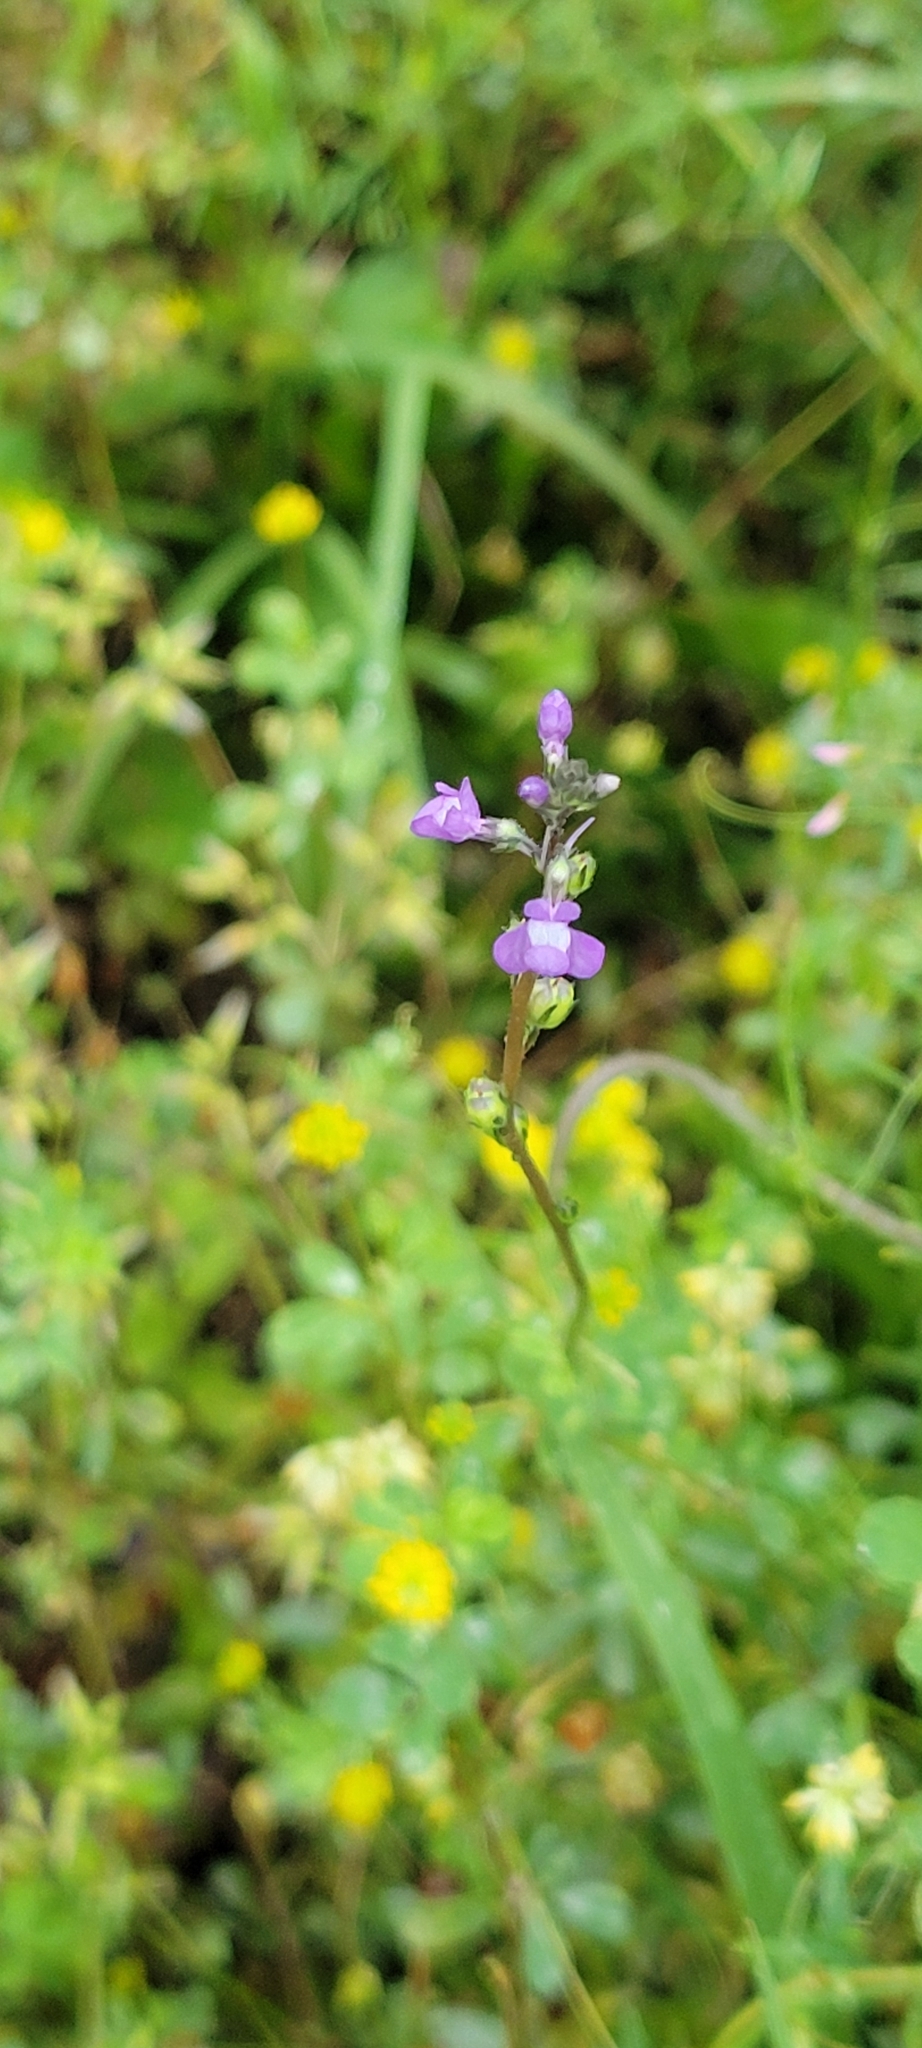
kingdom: Plantae
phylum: Tracheophyta
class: Magnoliopsida
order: Lamiales
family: Plantaginaceae
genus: Nuttallanthus
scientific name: Nuttallanthus canadensis
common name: Blue toadflax
